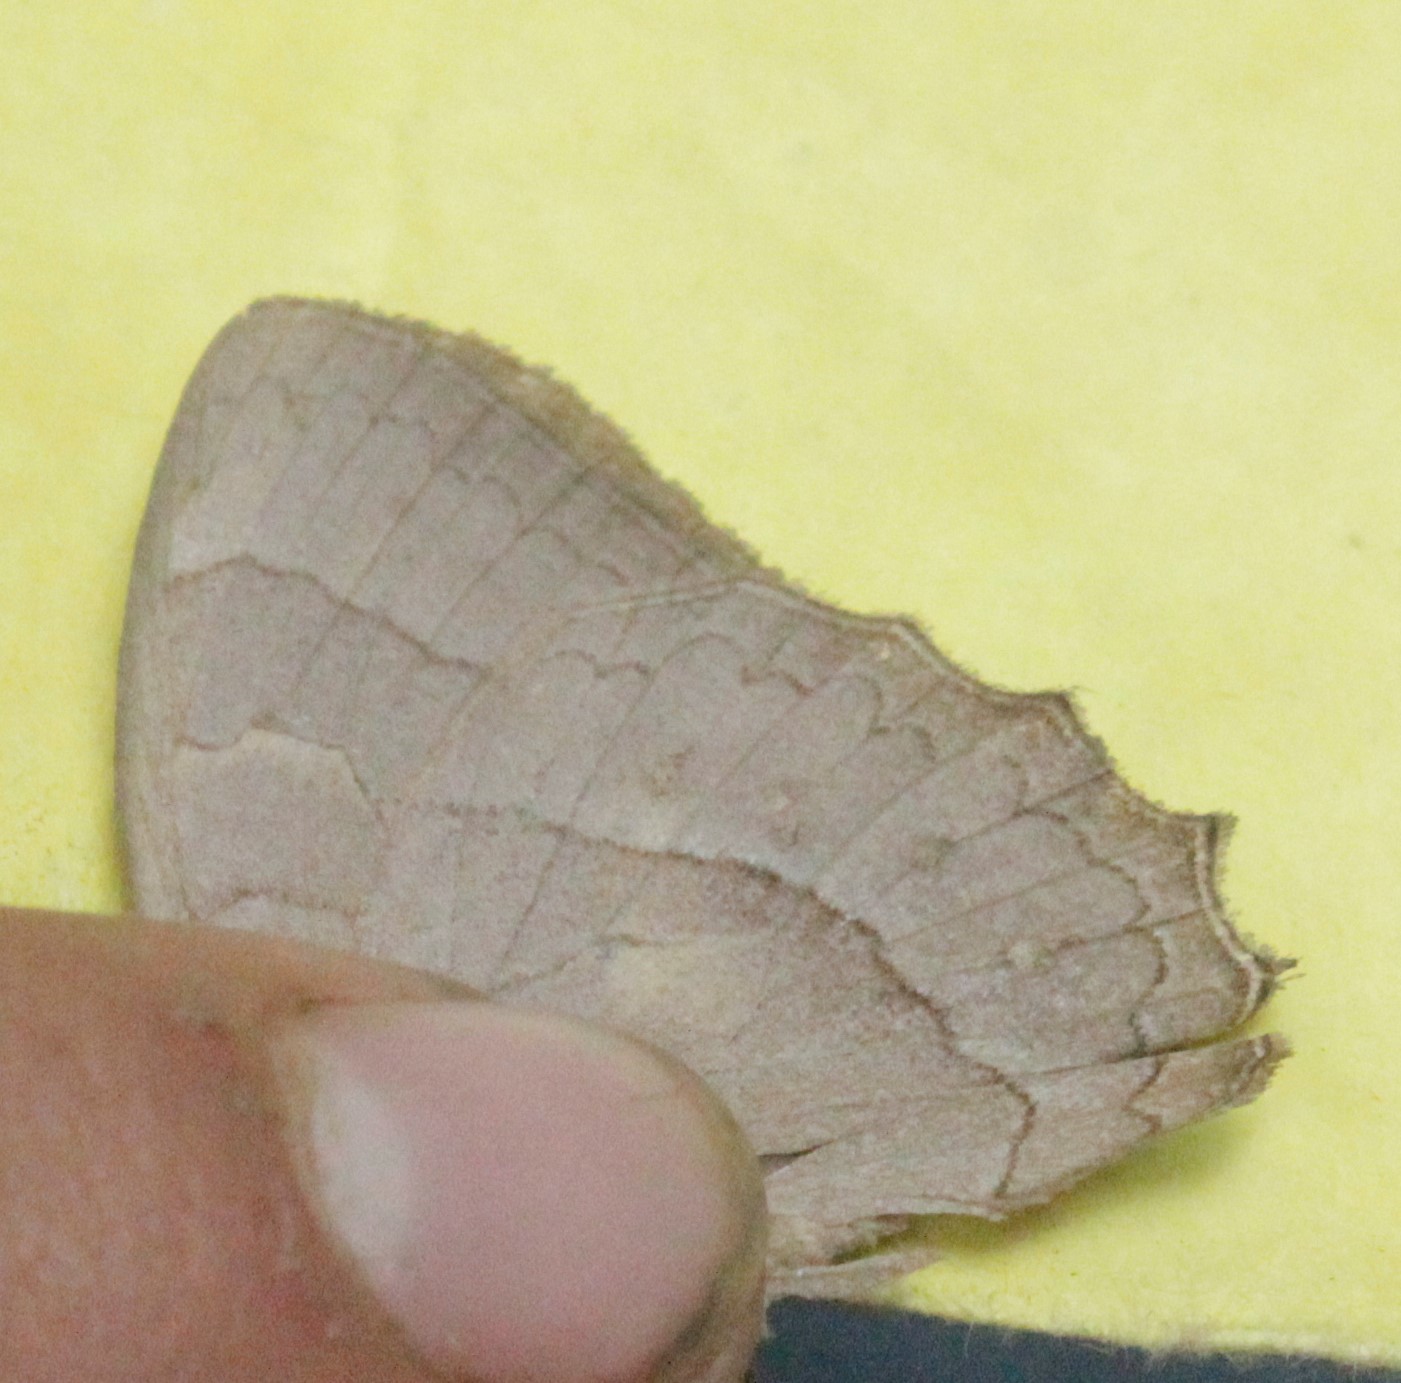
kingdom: Animalia
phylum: Arthropoda
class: Insecta
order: Lepidoptera
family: Nymphalidae
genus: Taygetina
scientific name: Taygetina kerea
